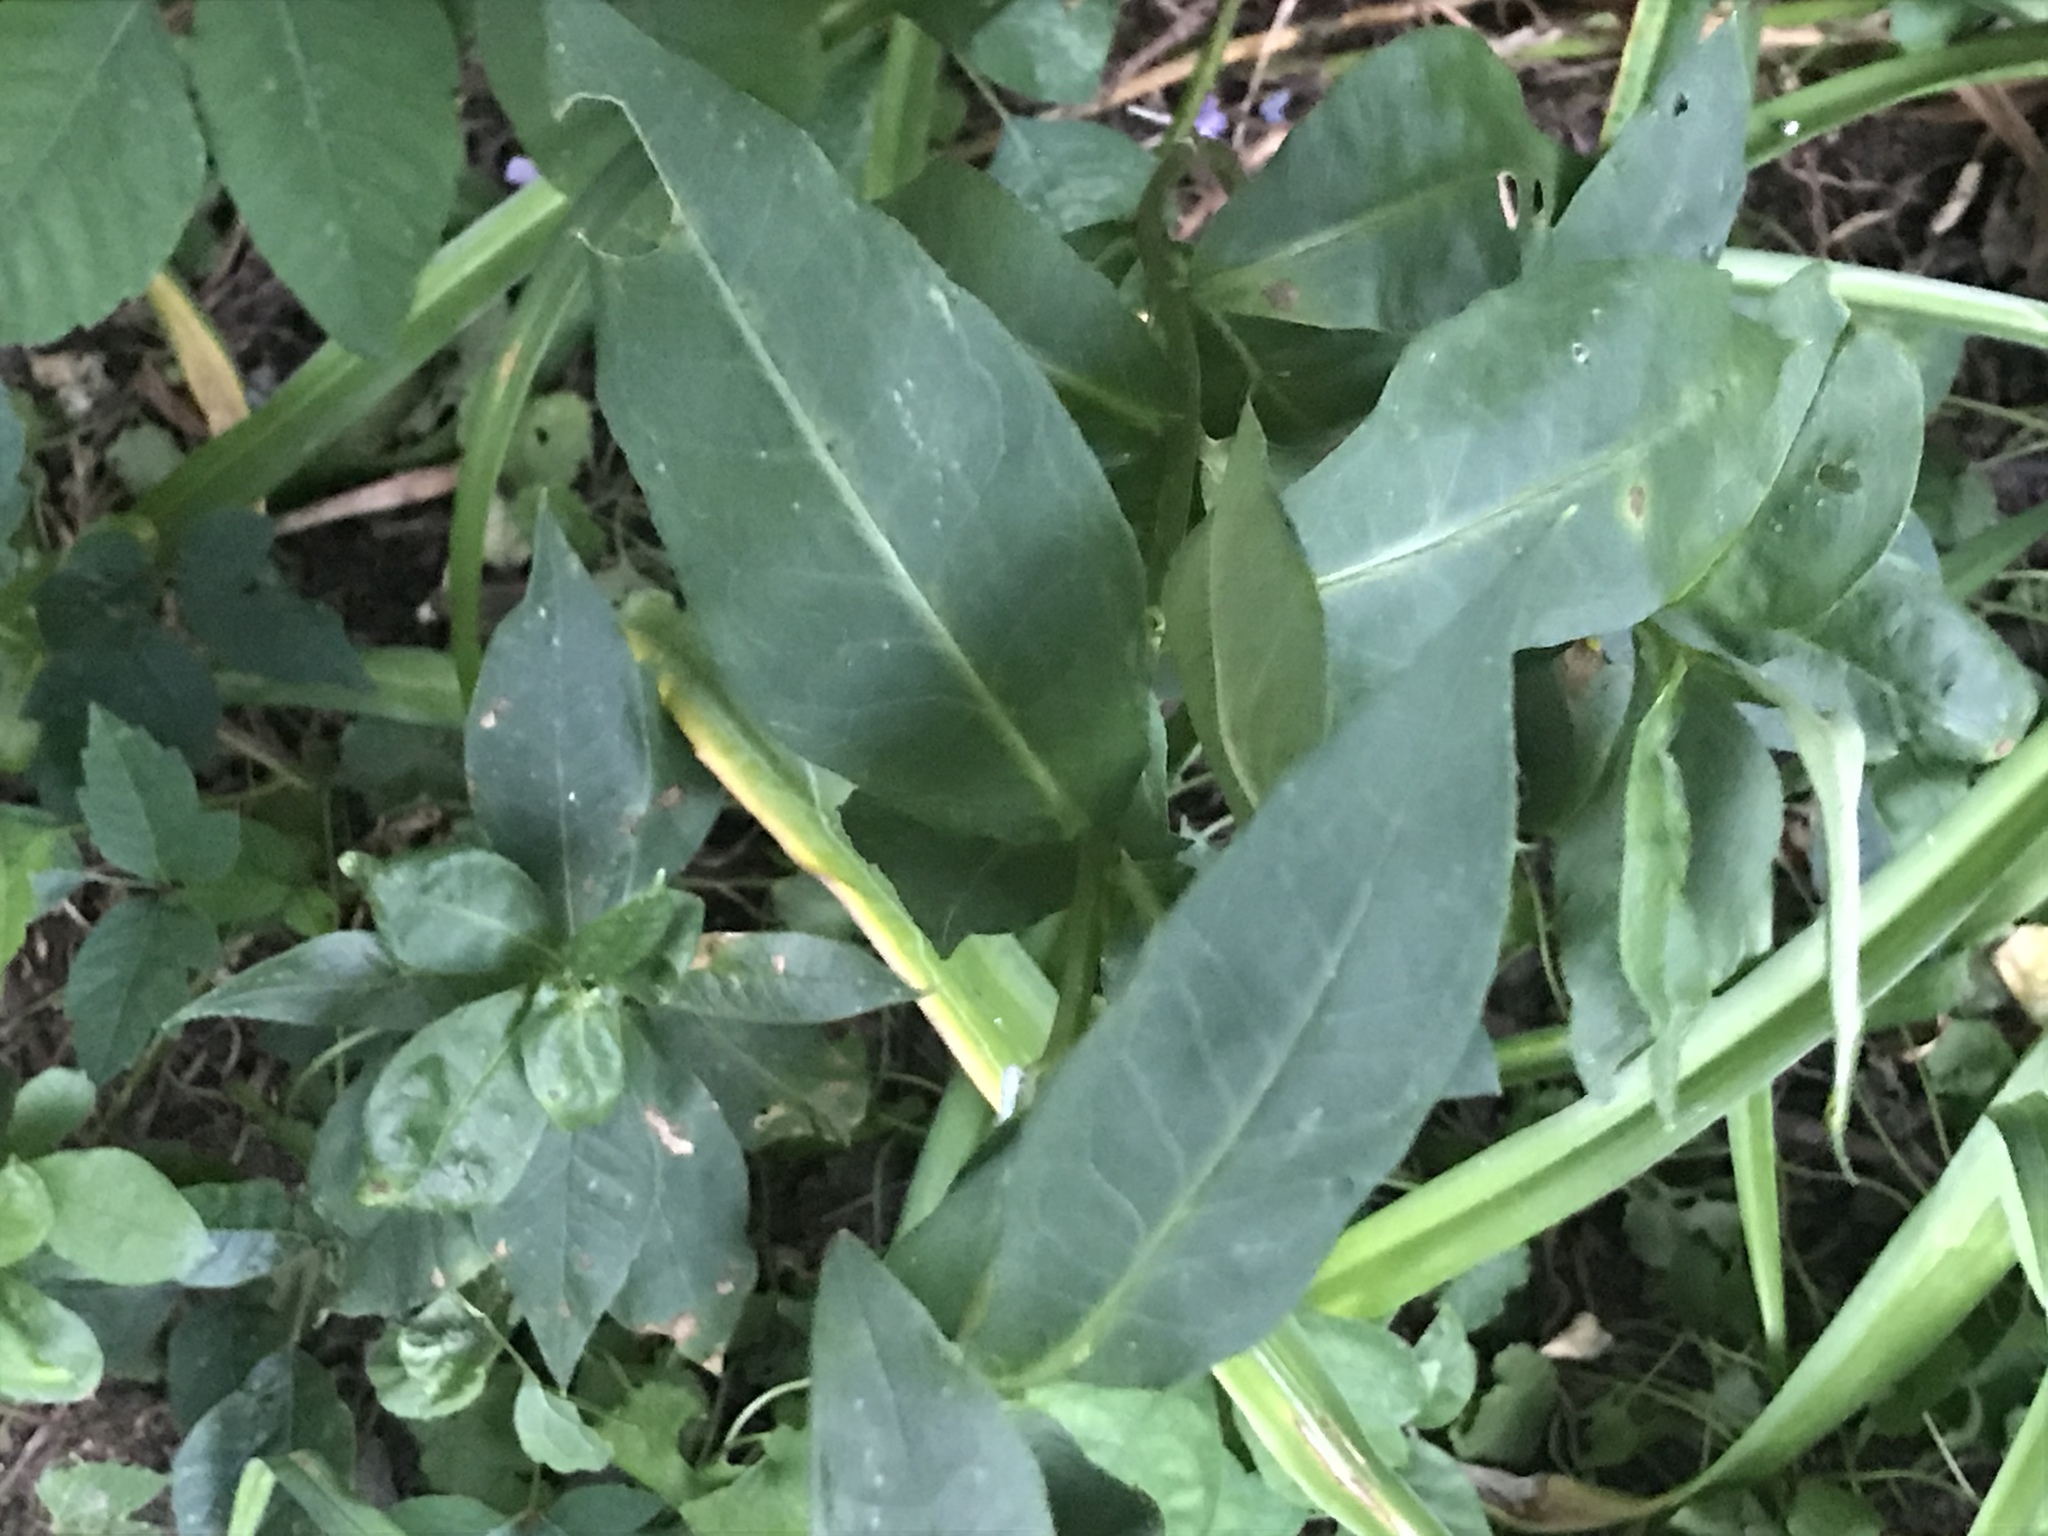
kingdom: Plantae
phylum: Tracheophyta
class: Magnoliopsida
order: Ericales
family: Polemoniaceae
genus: Phlox
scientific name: Phlox paniculata
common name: Fall phlox
